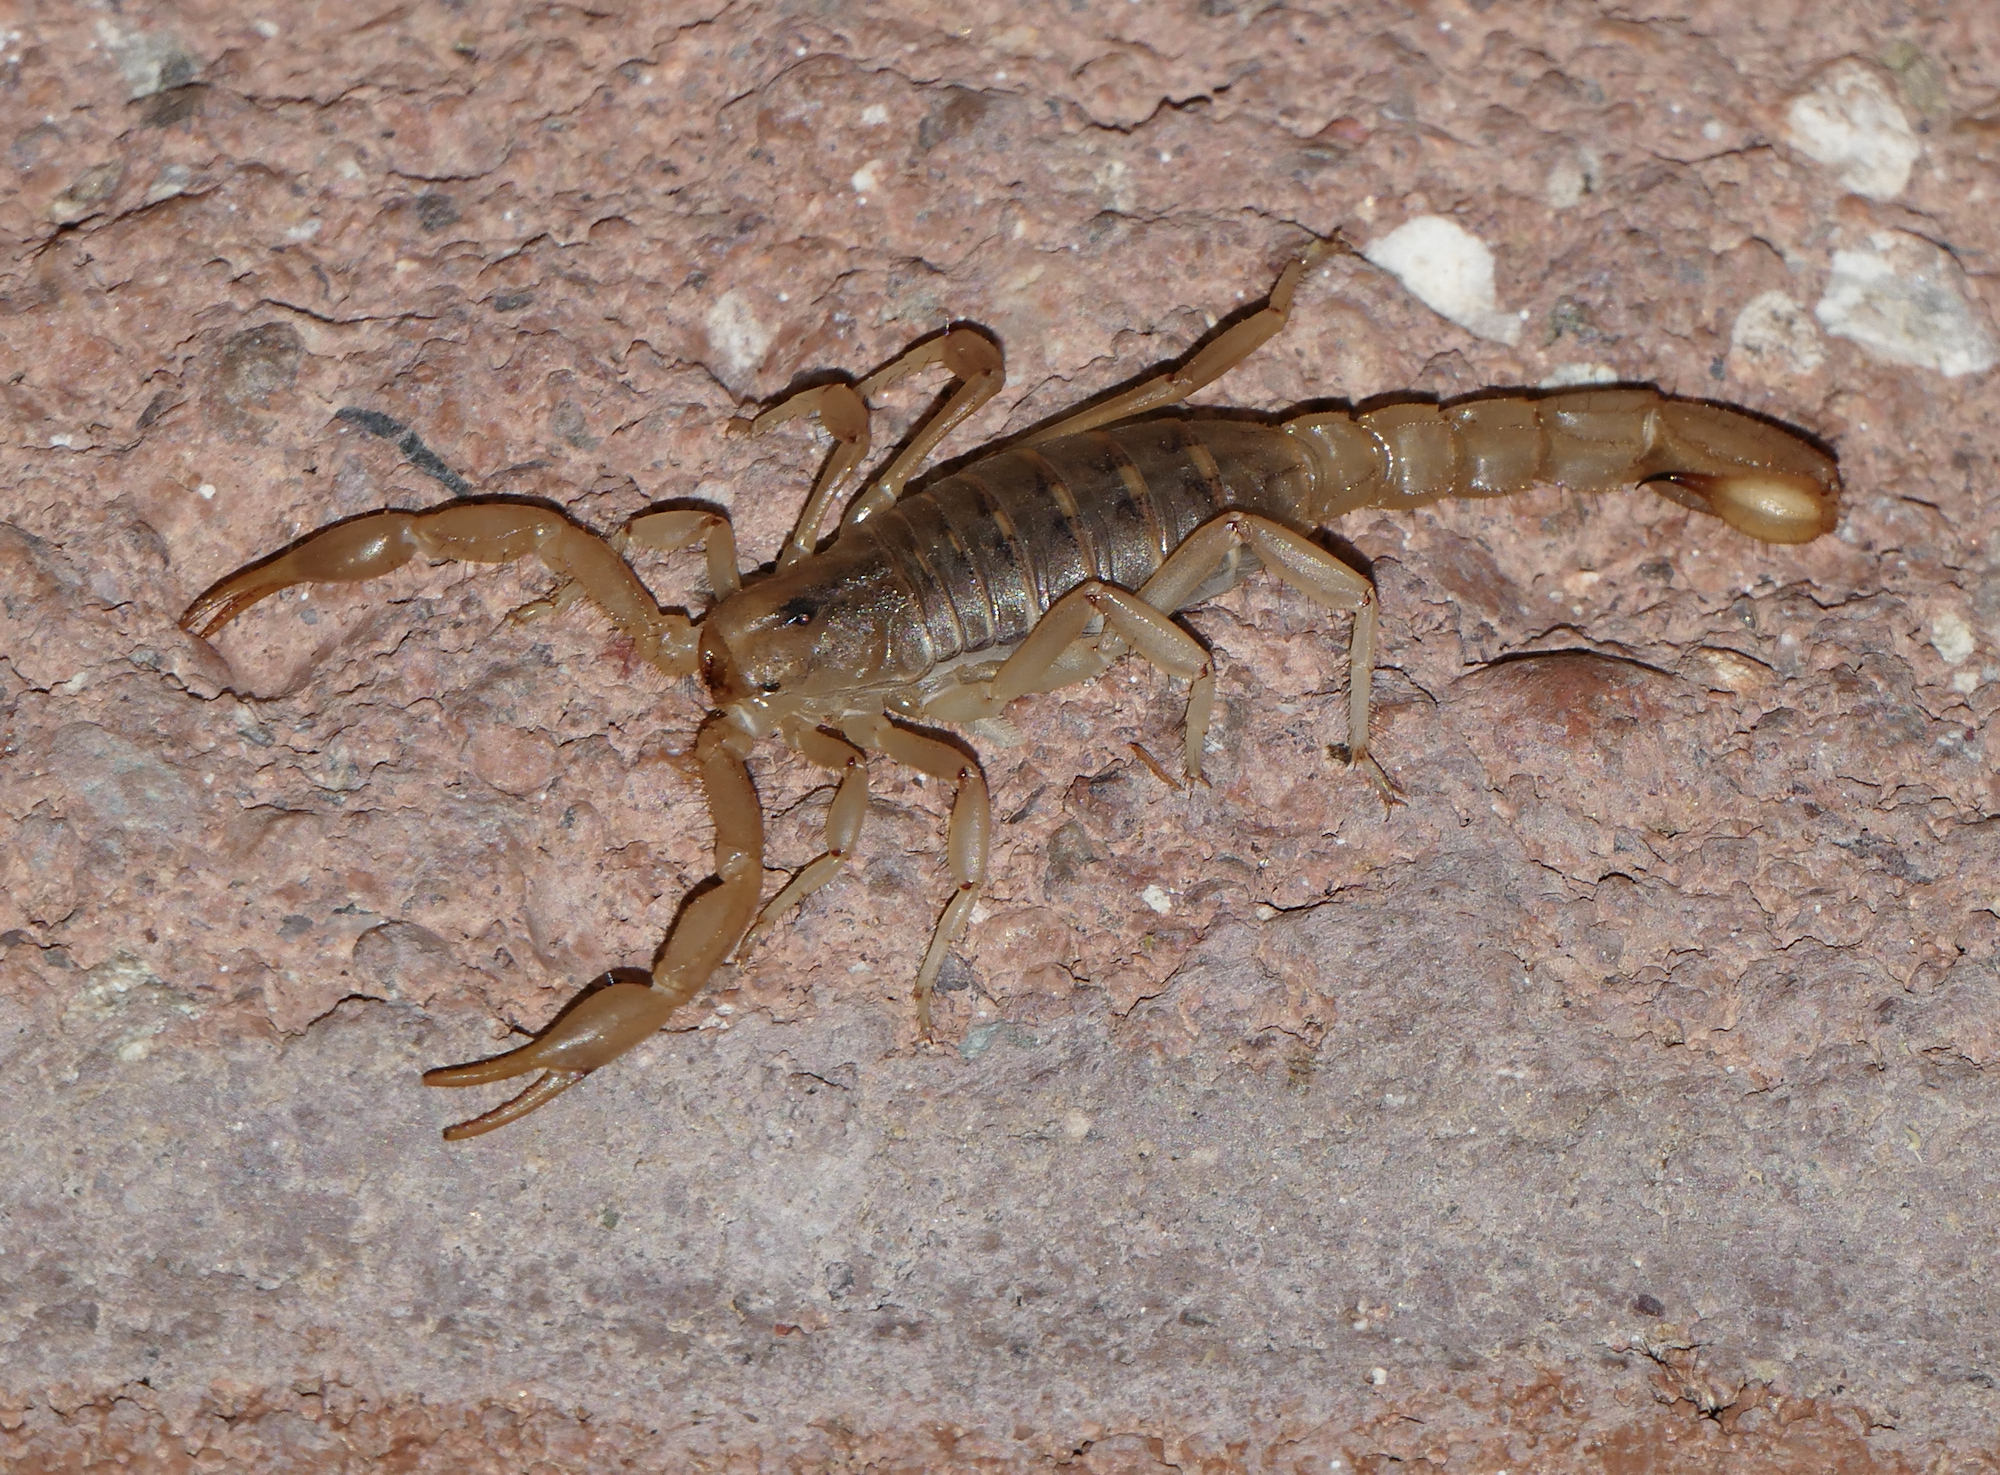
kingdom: Animalia
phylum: Arthropoda
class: Arachnida
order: Scorpiones
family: Vaejovidae
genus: Paravaejovis
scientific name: Paravaejovis spinigerus
